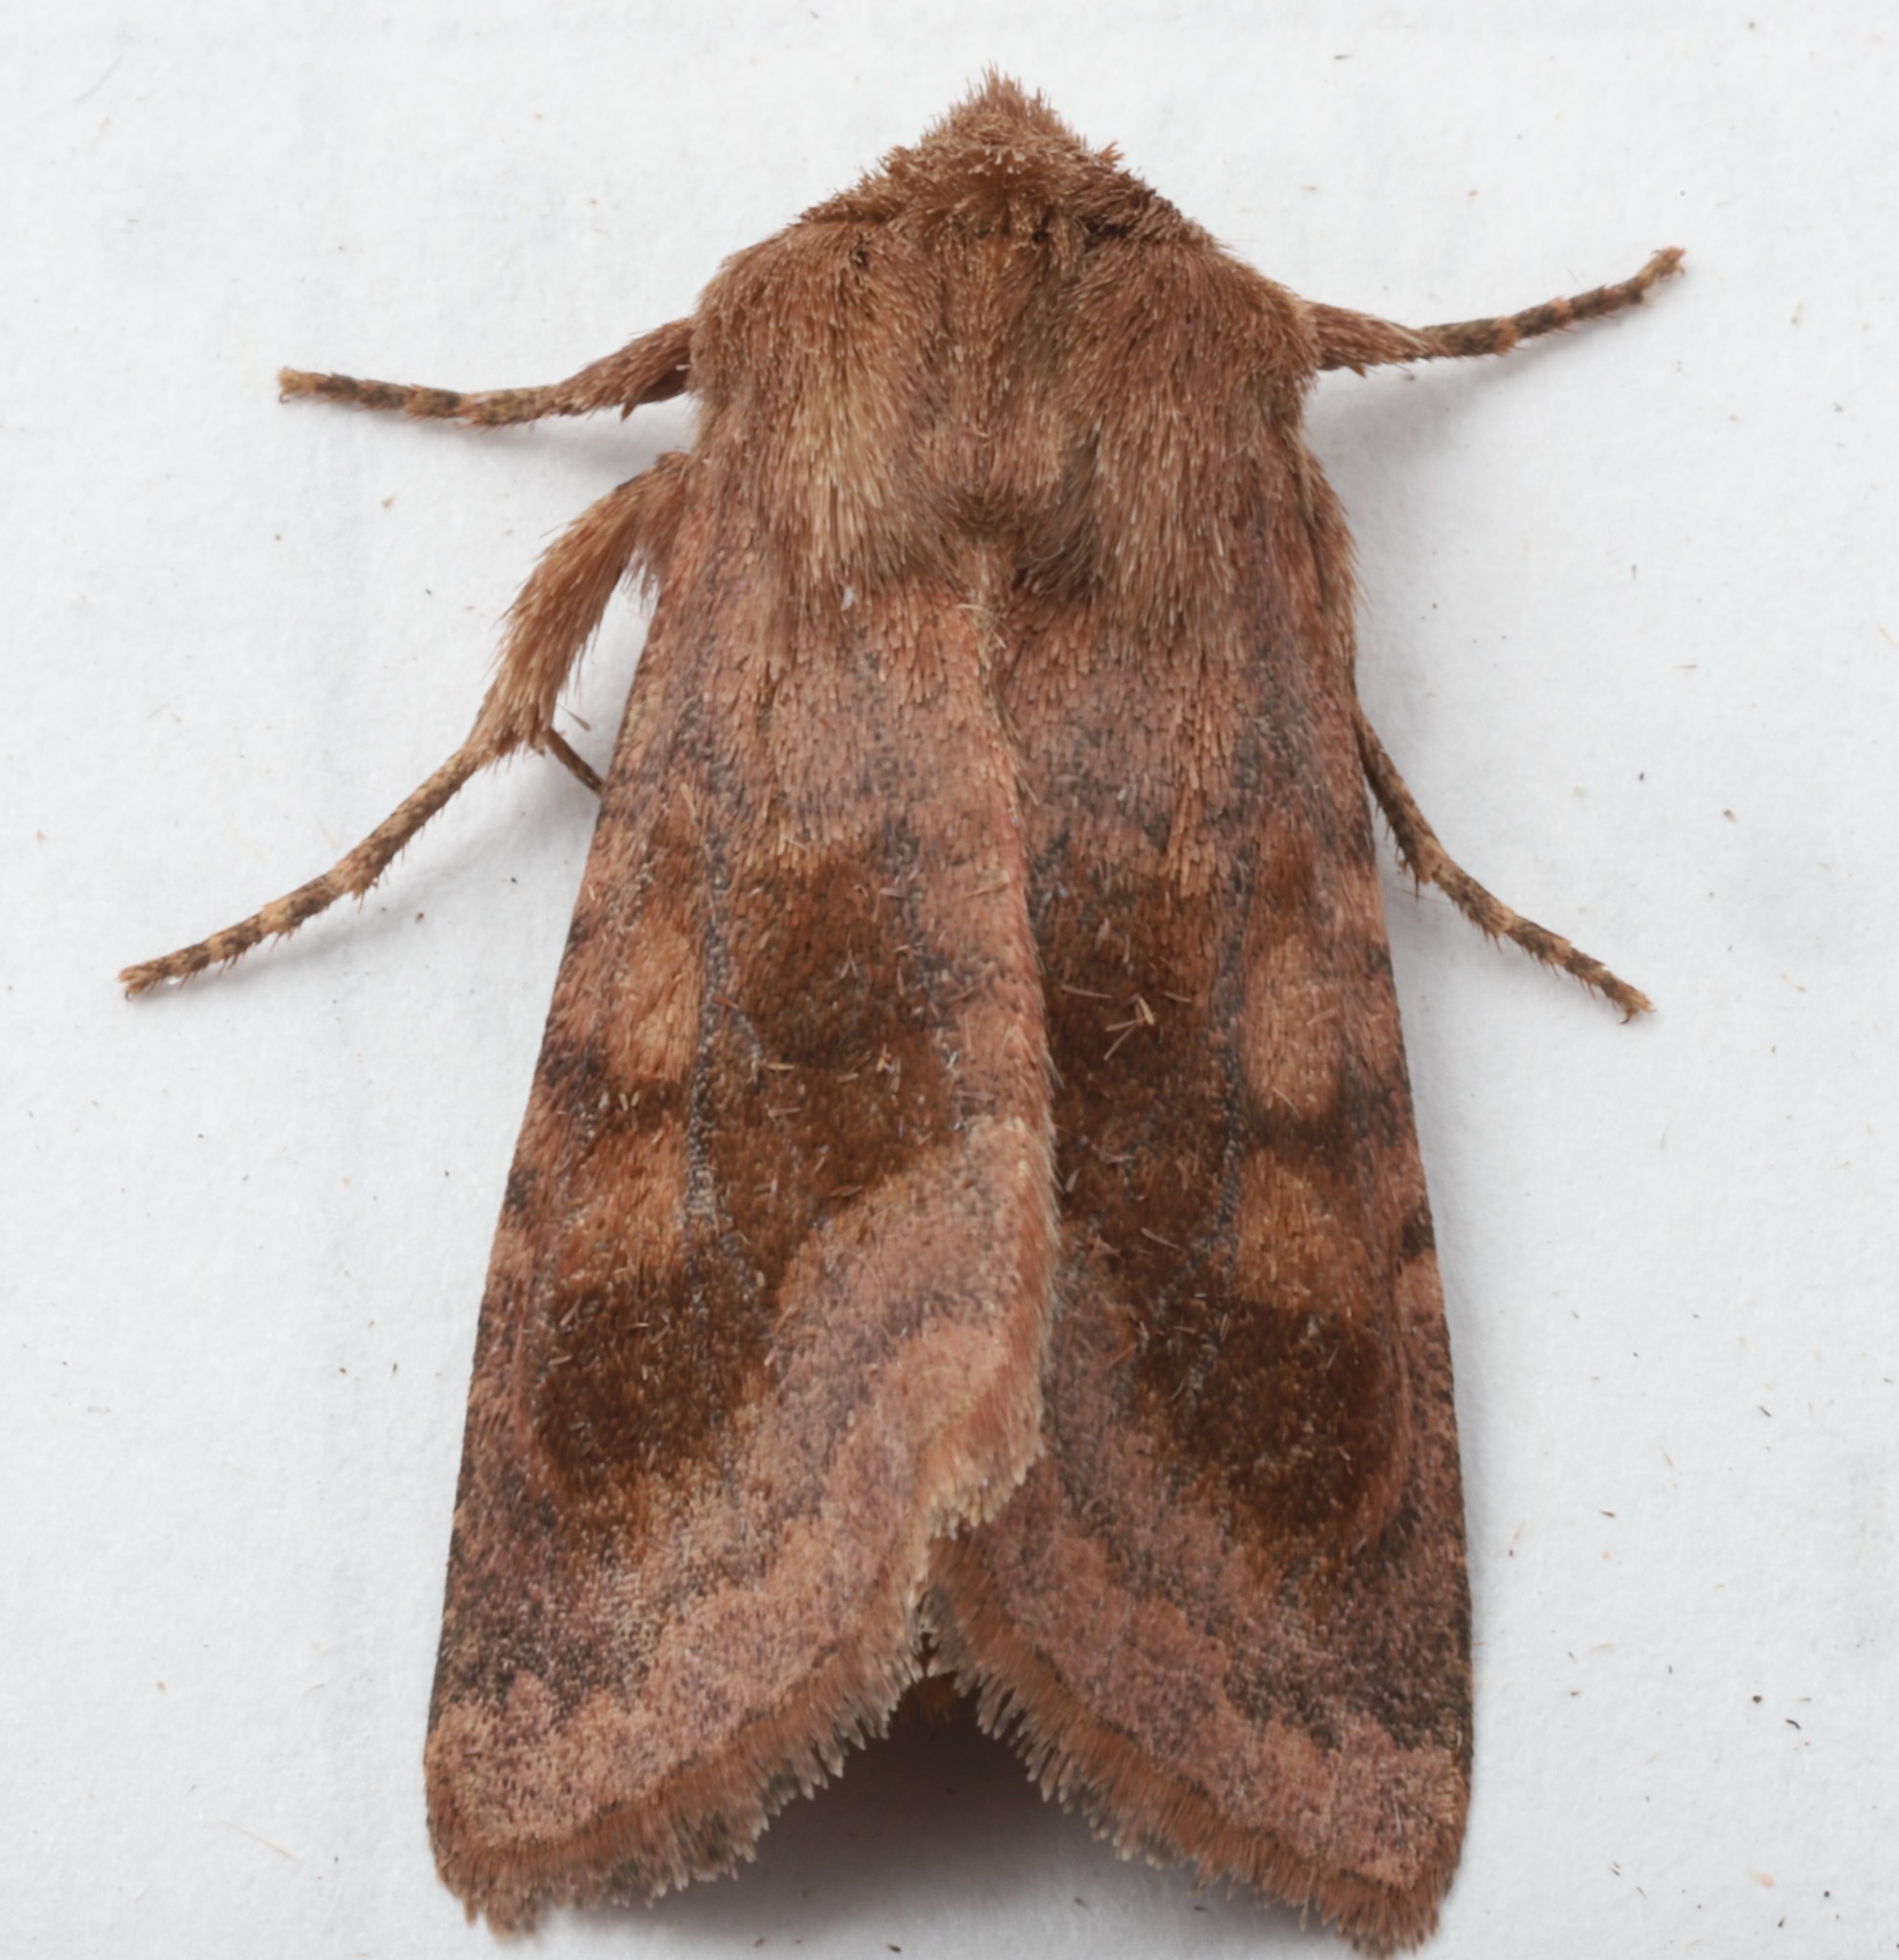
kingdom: Animalia
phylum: Arthropoda
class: Insecta
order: Lepidoptera
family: Noctuidae
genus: Nephelodes
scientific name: Nephelodes minians
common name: Bronzed cutworm
